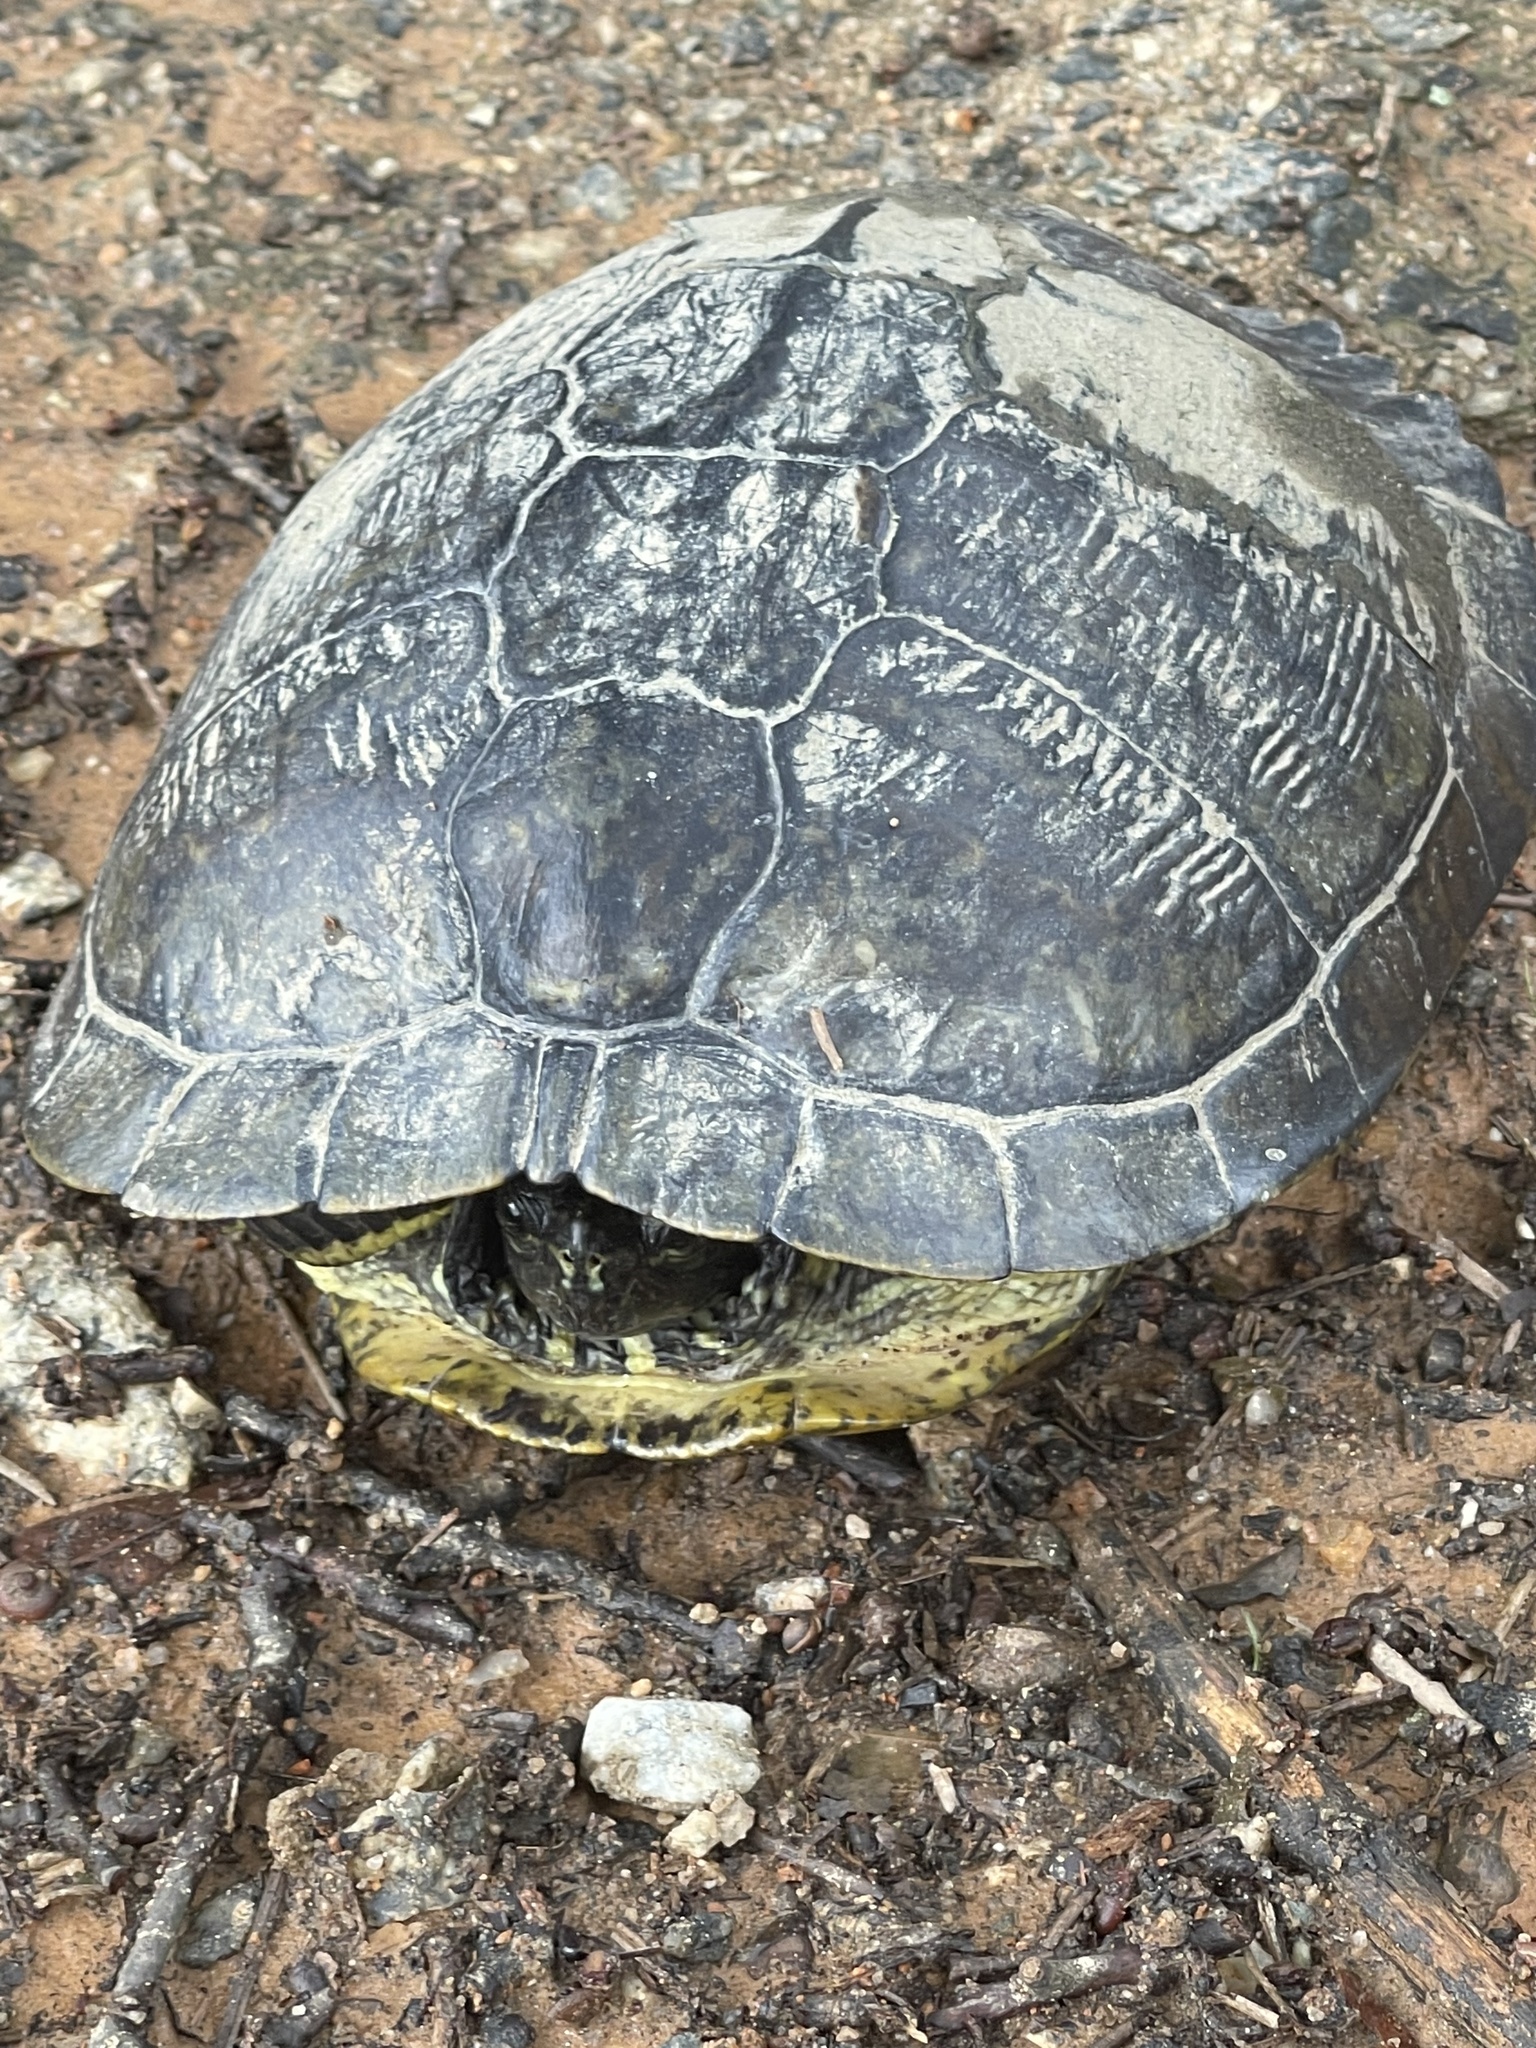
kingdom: Animalia
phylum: Chordata
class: Testudines
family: Emydidae
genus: Trachemys
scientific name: Trachemys scripta
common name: Slider
